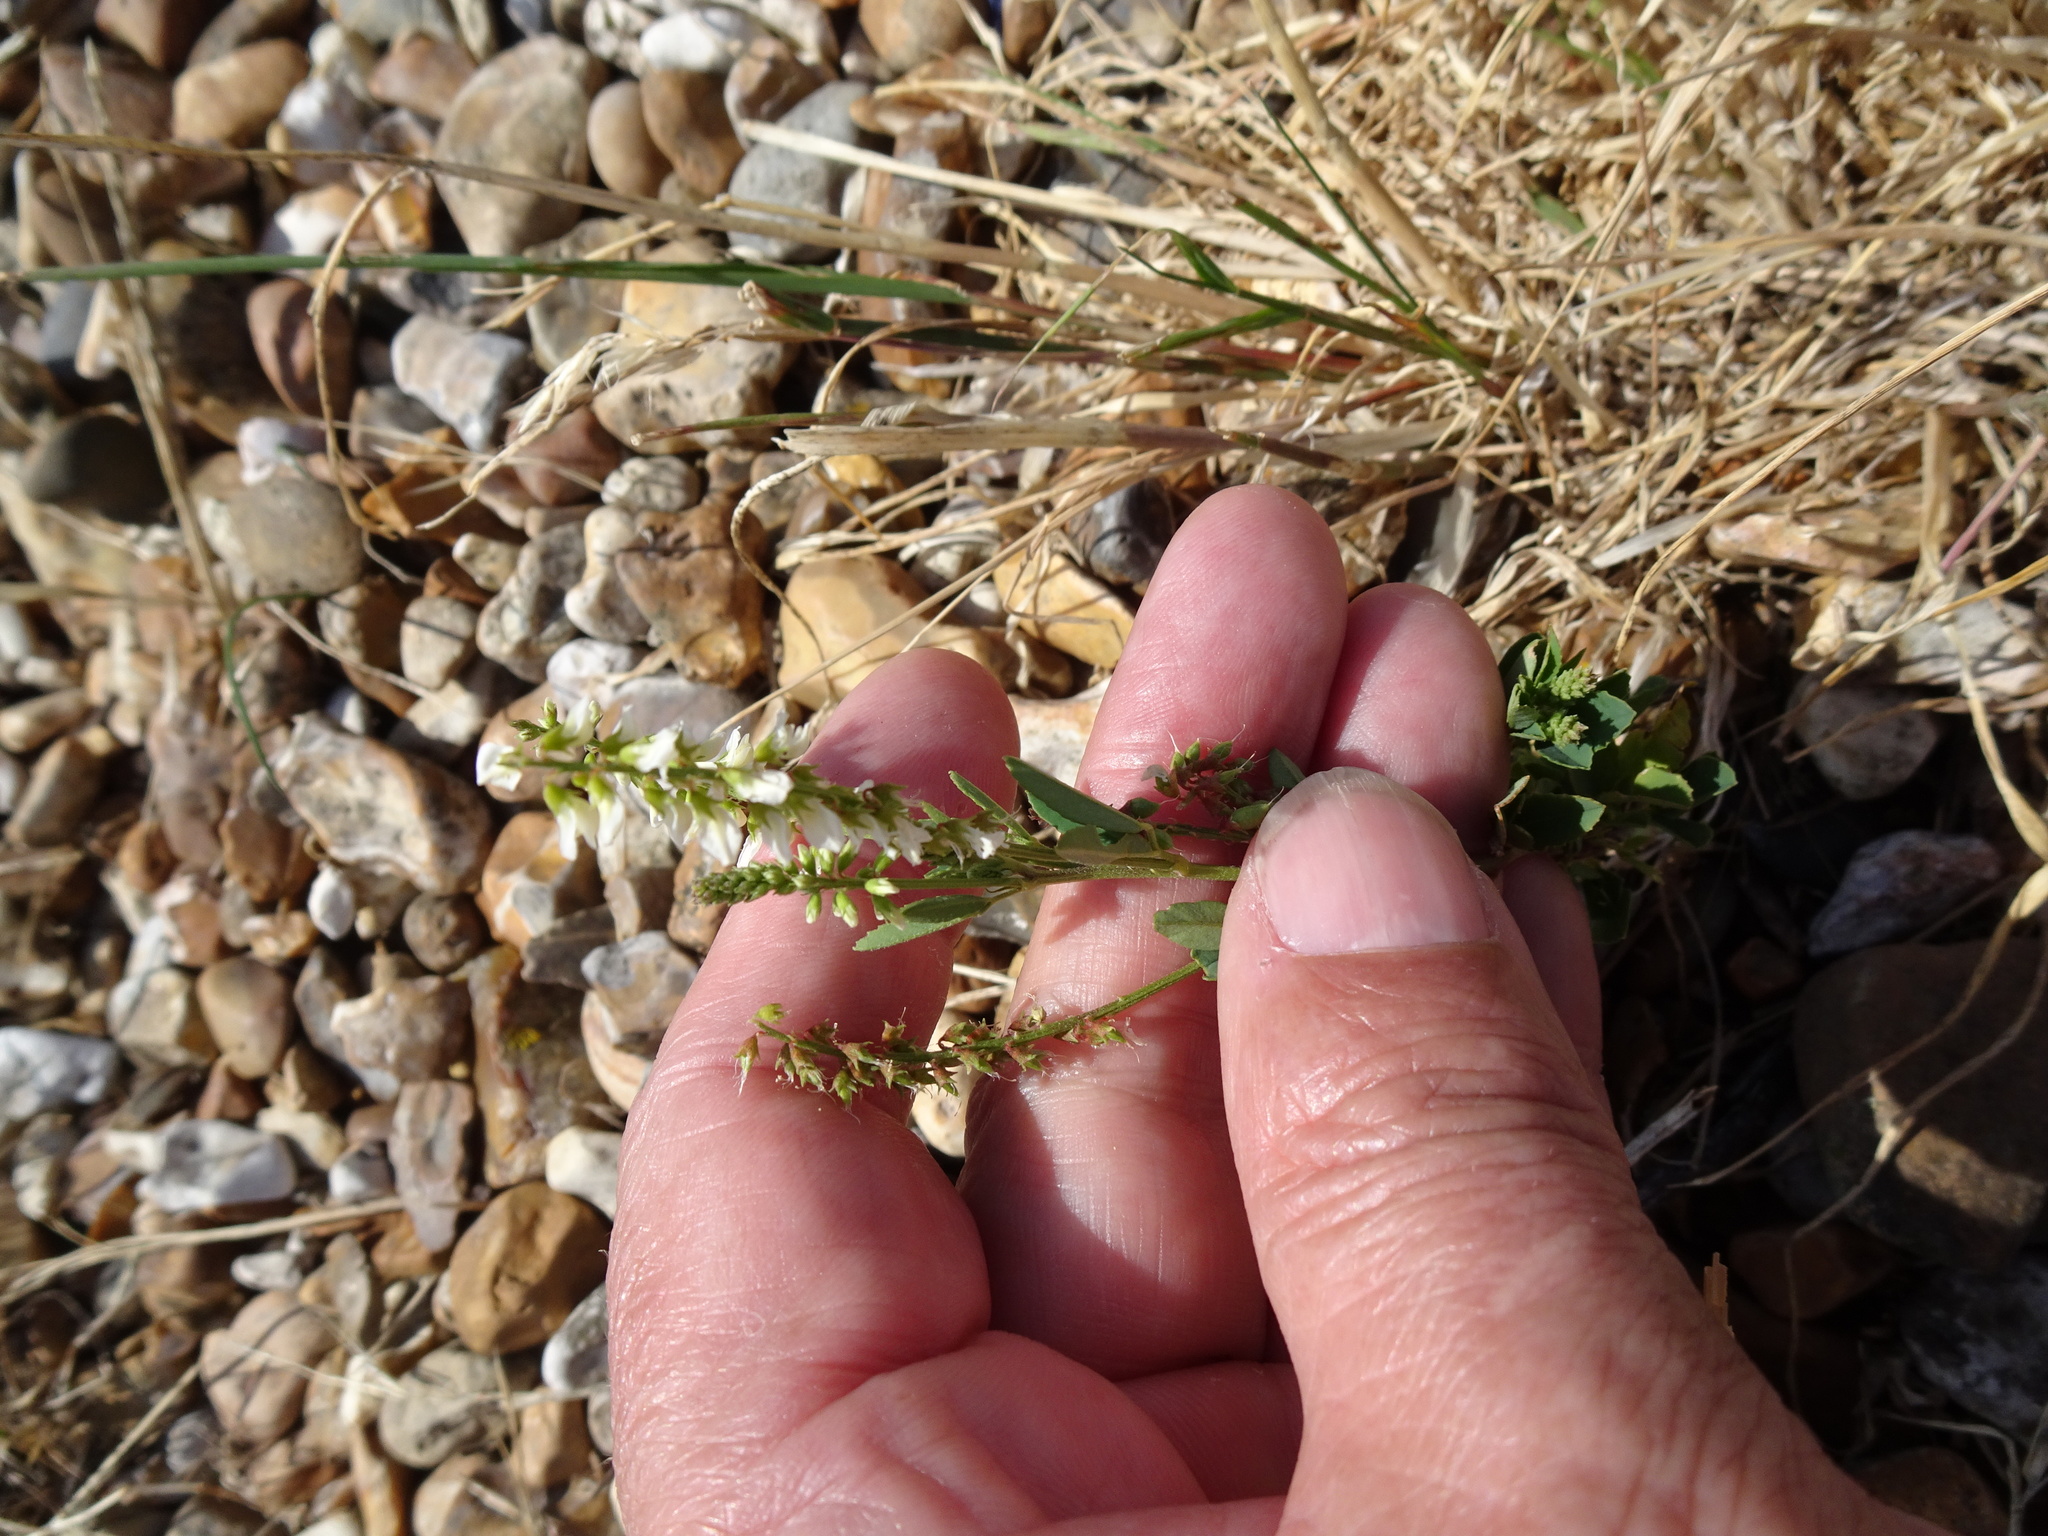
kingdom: Plantae
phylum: Tracheophyta
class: Magnoliopsida
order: Fabales
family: Fabaceae
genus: Melilotus
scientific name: Melilotus albus
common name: White melilot
